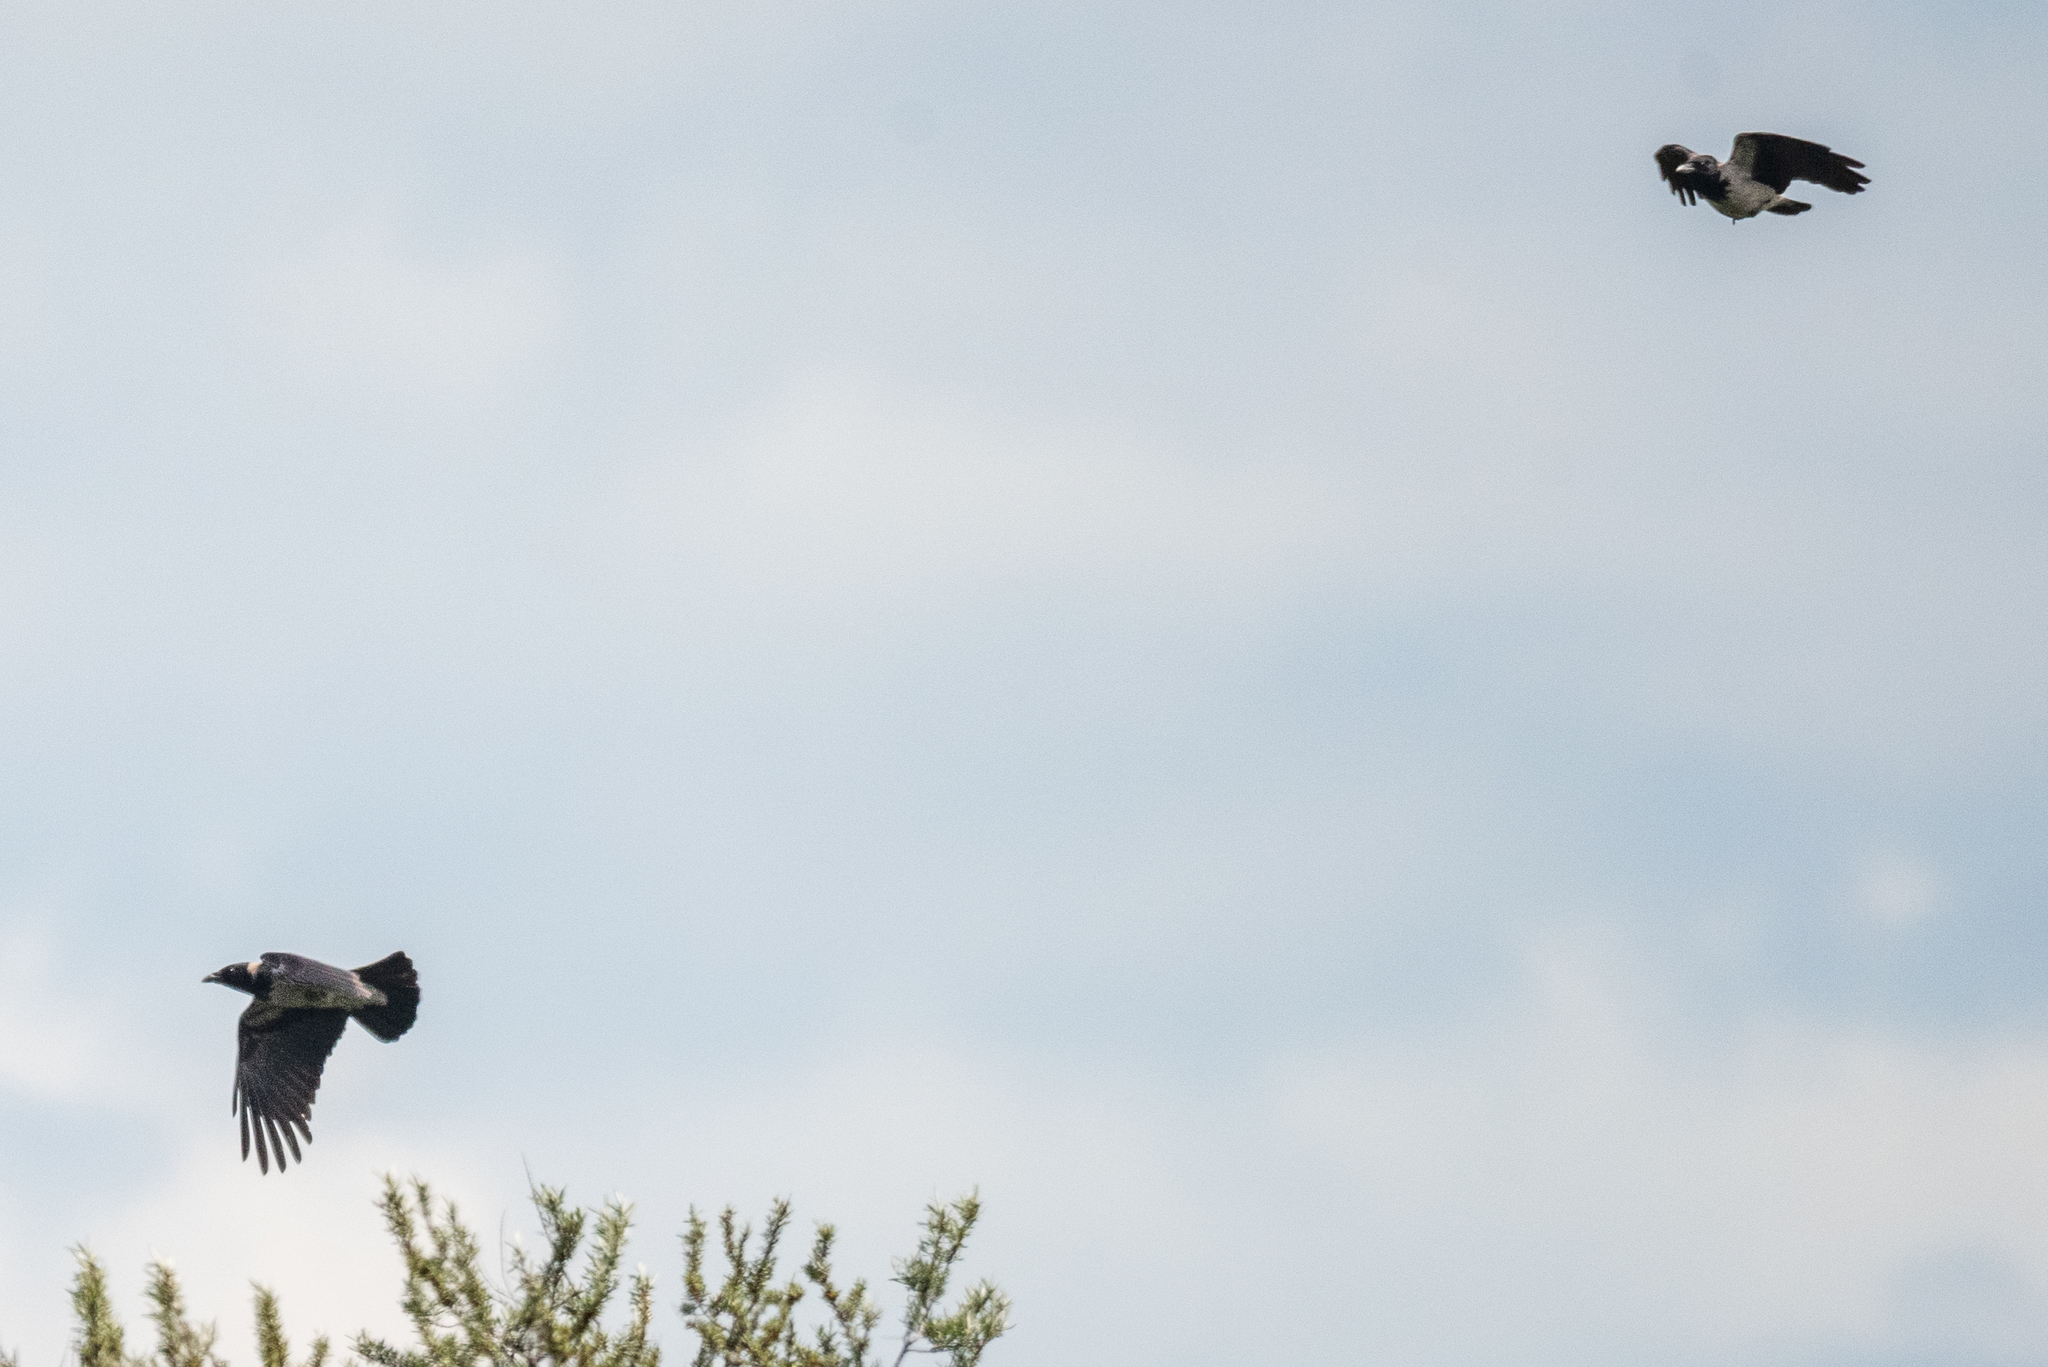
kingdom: Animalia
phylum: Chordata
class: Aves
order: Passeriformes
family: Corvidae
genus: Corvus
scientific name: Corvus cornix
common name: Hooded crow
